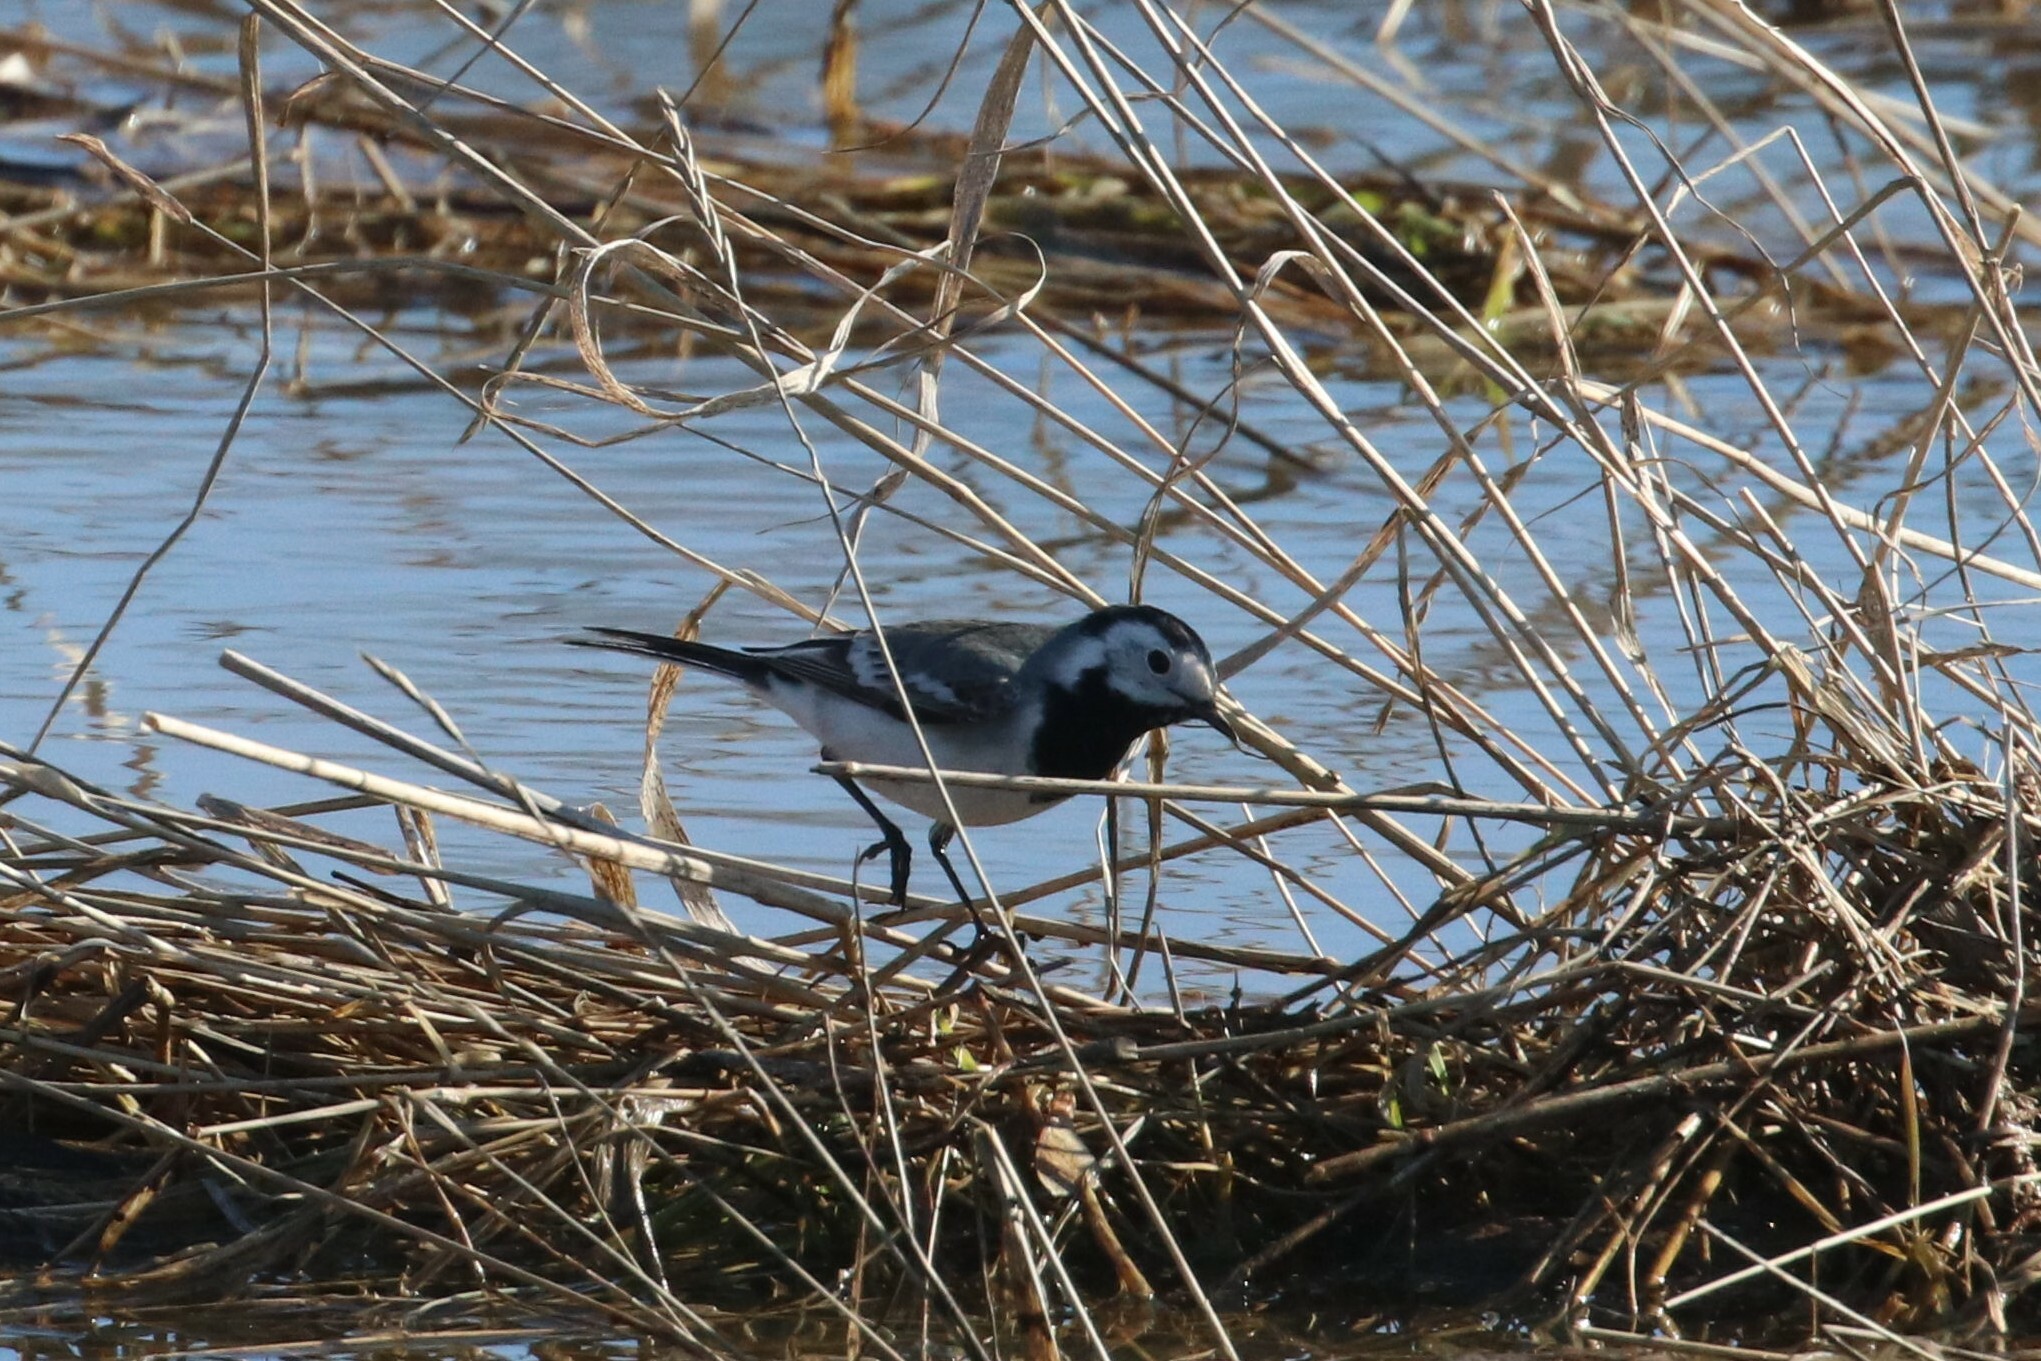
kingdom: Animalia
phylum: Chordata
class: Aves
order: Passeriformes
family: Motacillidae
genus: Motacilla
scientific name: Motacilla alba
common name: White wagtail
